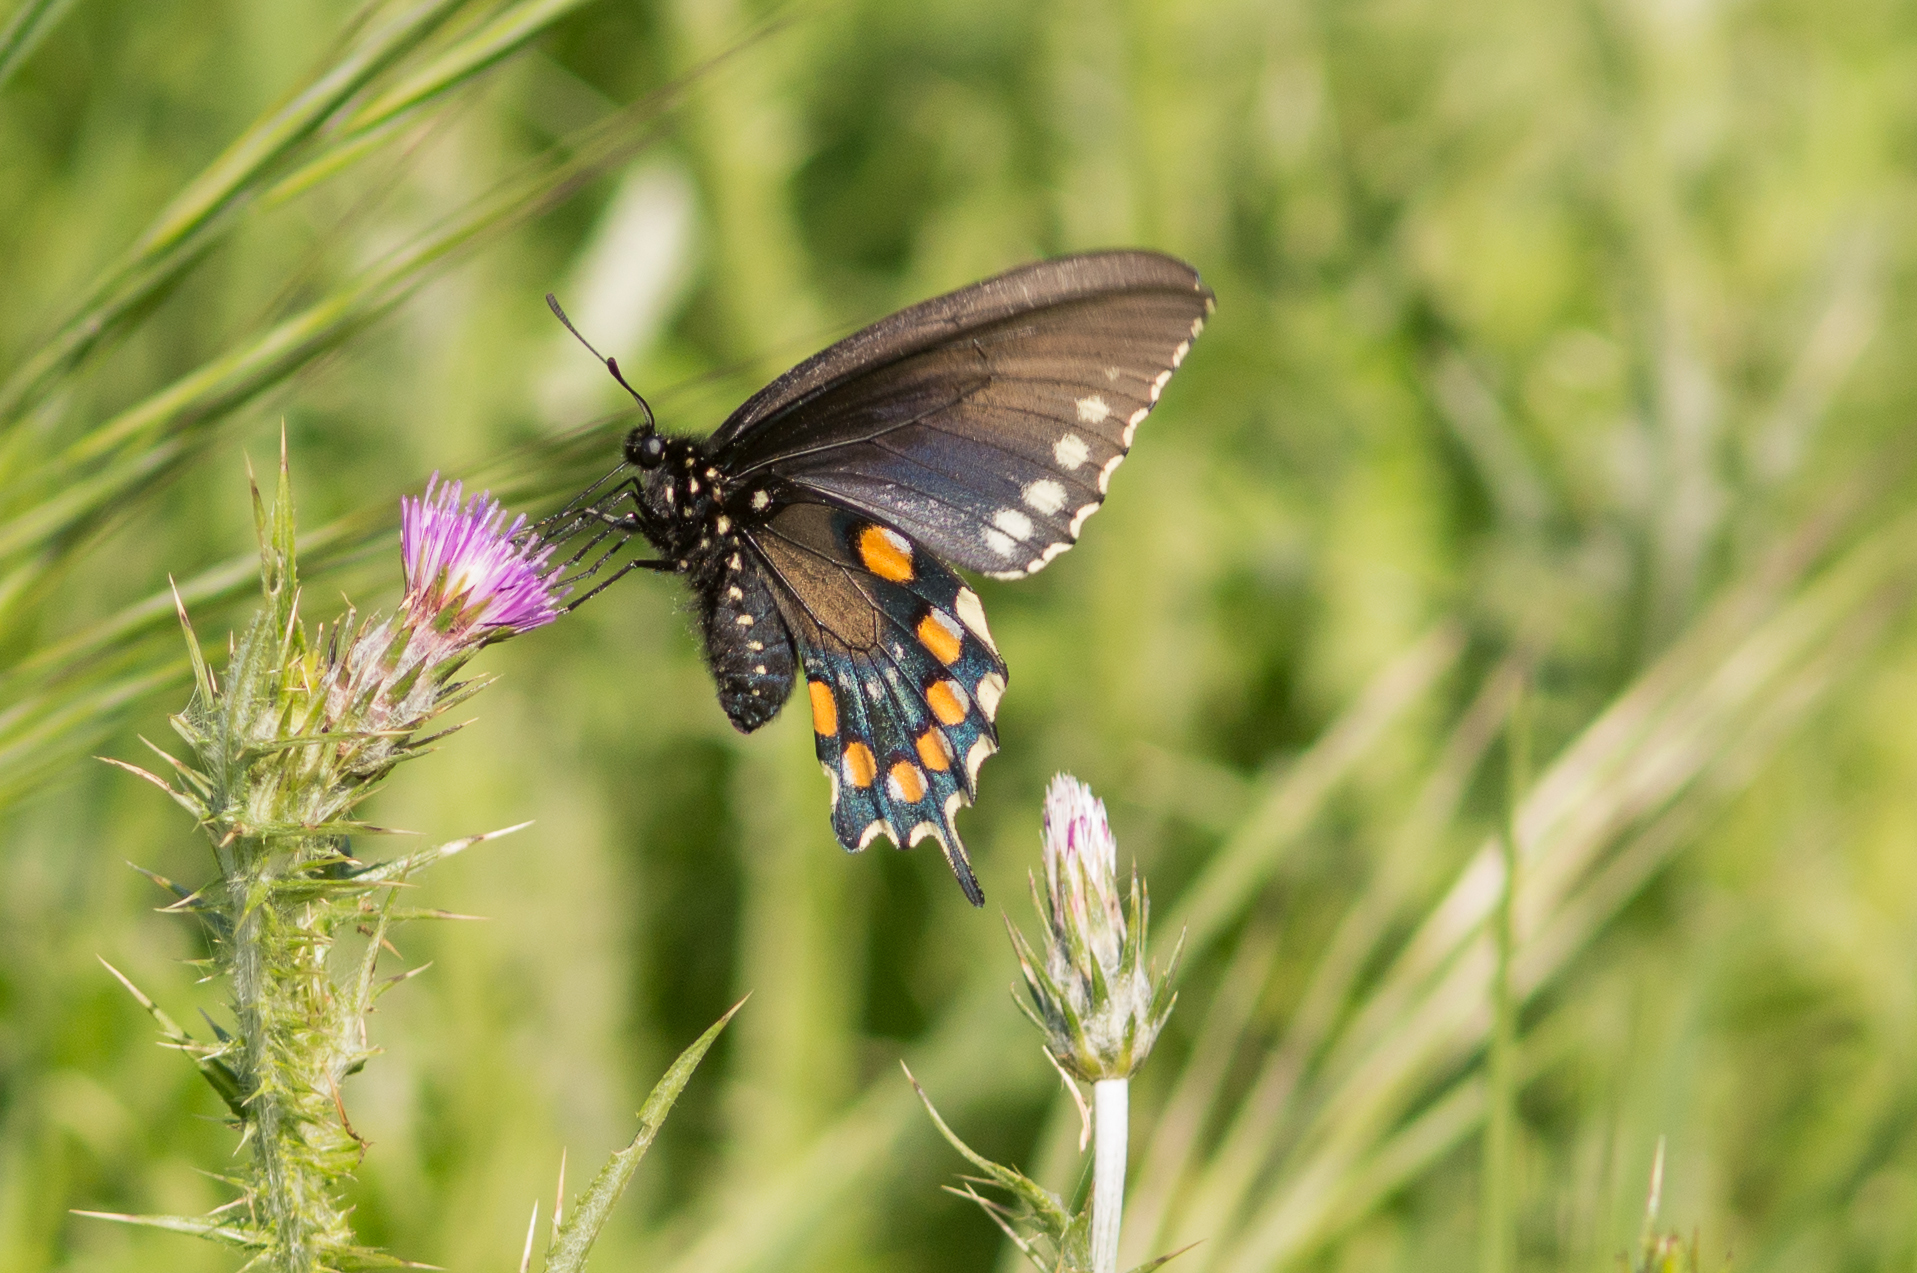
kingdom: Animalia
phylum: Arthropoda
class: Insecta
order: Lepidoptera
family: Papilionidae
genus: Battus
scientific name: Battus philenor
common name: Pipevine swallowtail
